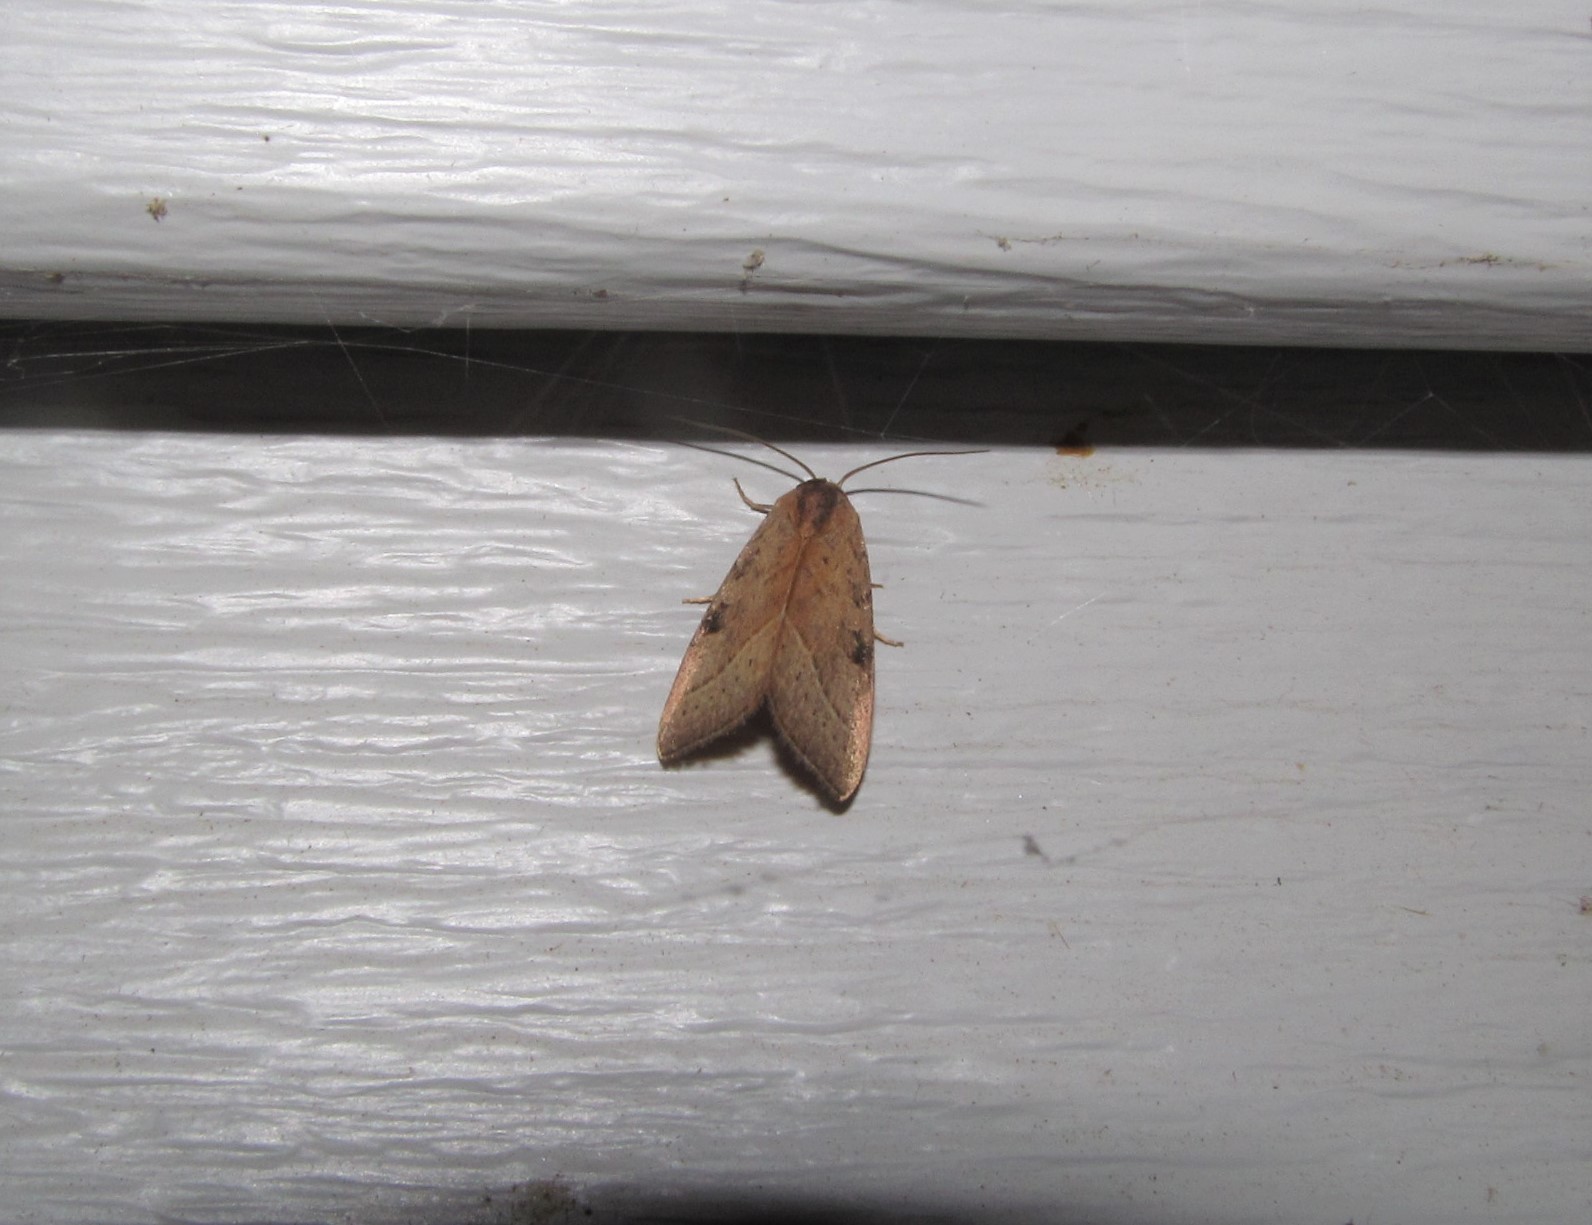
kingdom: Animalia
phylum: Arthropoda
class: Insecta
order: Lepidoptera
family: Noctuidae
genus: Galgula
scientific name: Galgula partita
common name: Wedgeling
